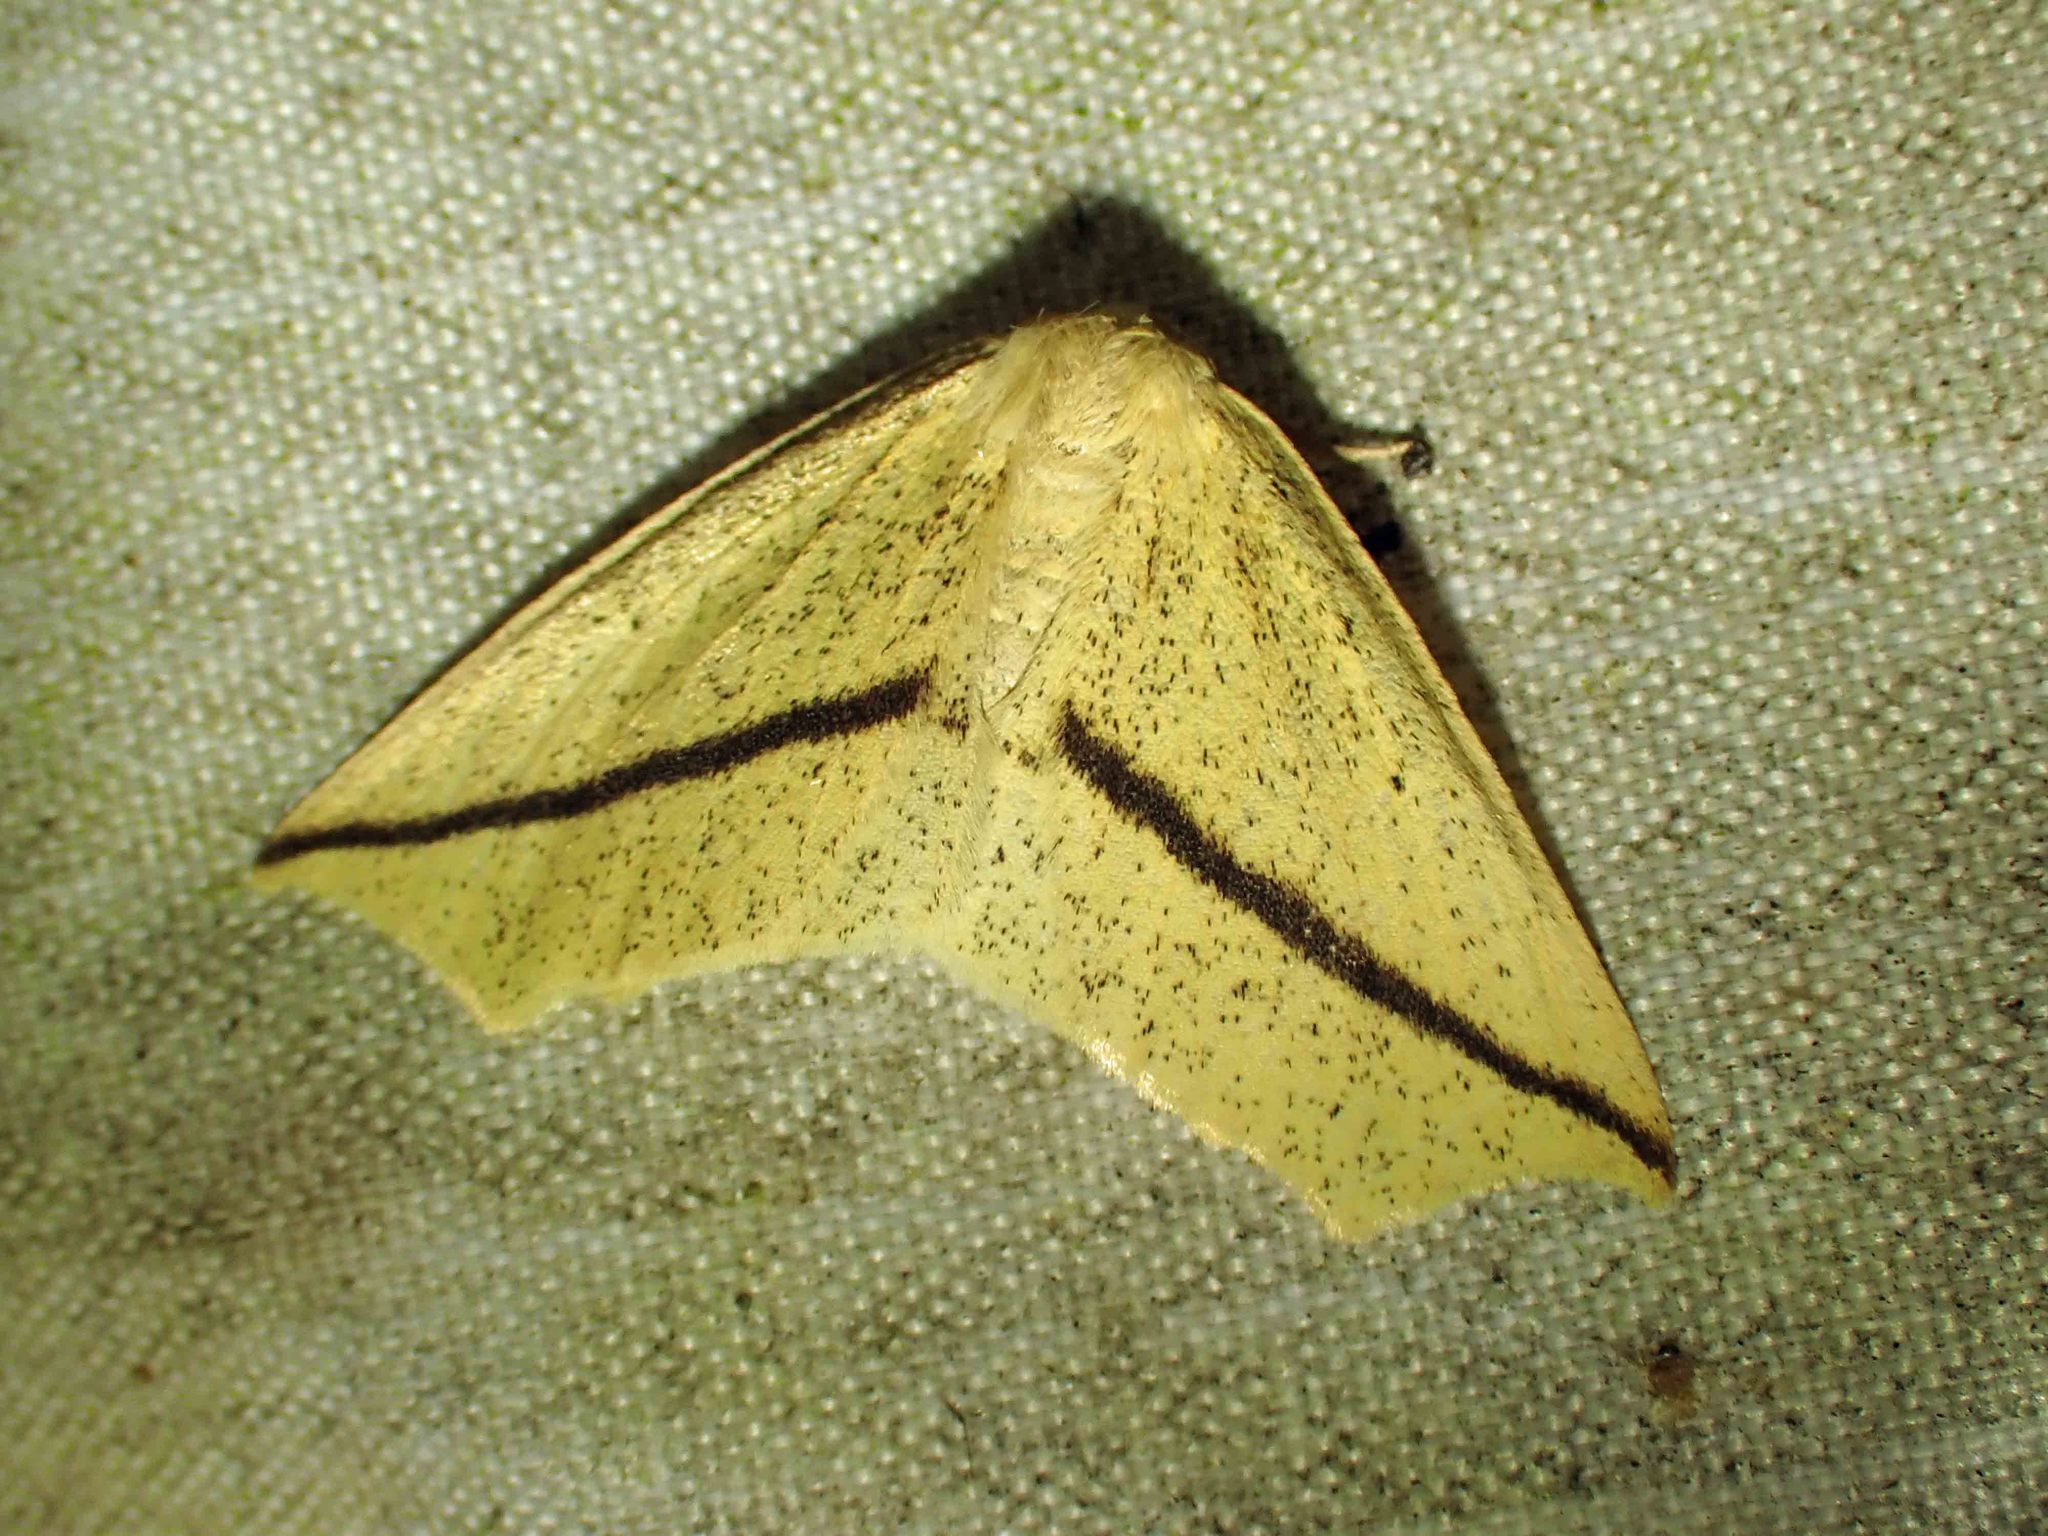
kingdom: Animalia
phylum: Arthropoda
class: Insecta
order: Lepidoptera
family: Geometridae
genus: Tetracis
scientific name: Tetracis crocallata
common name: Yellow slant-line
